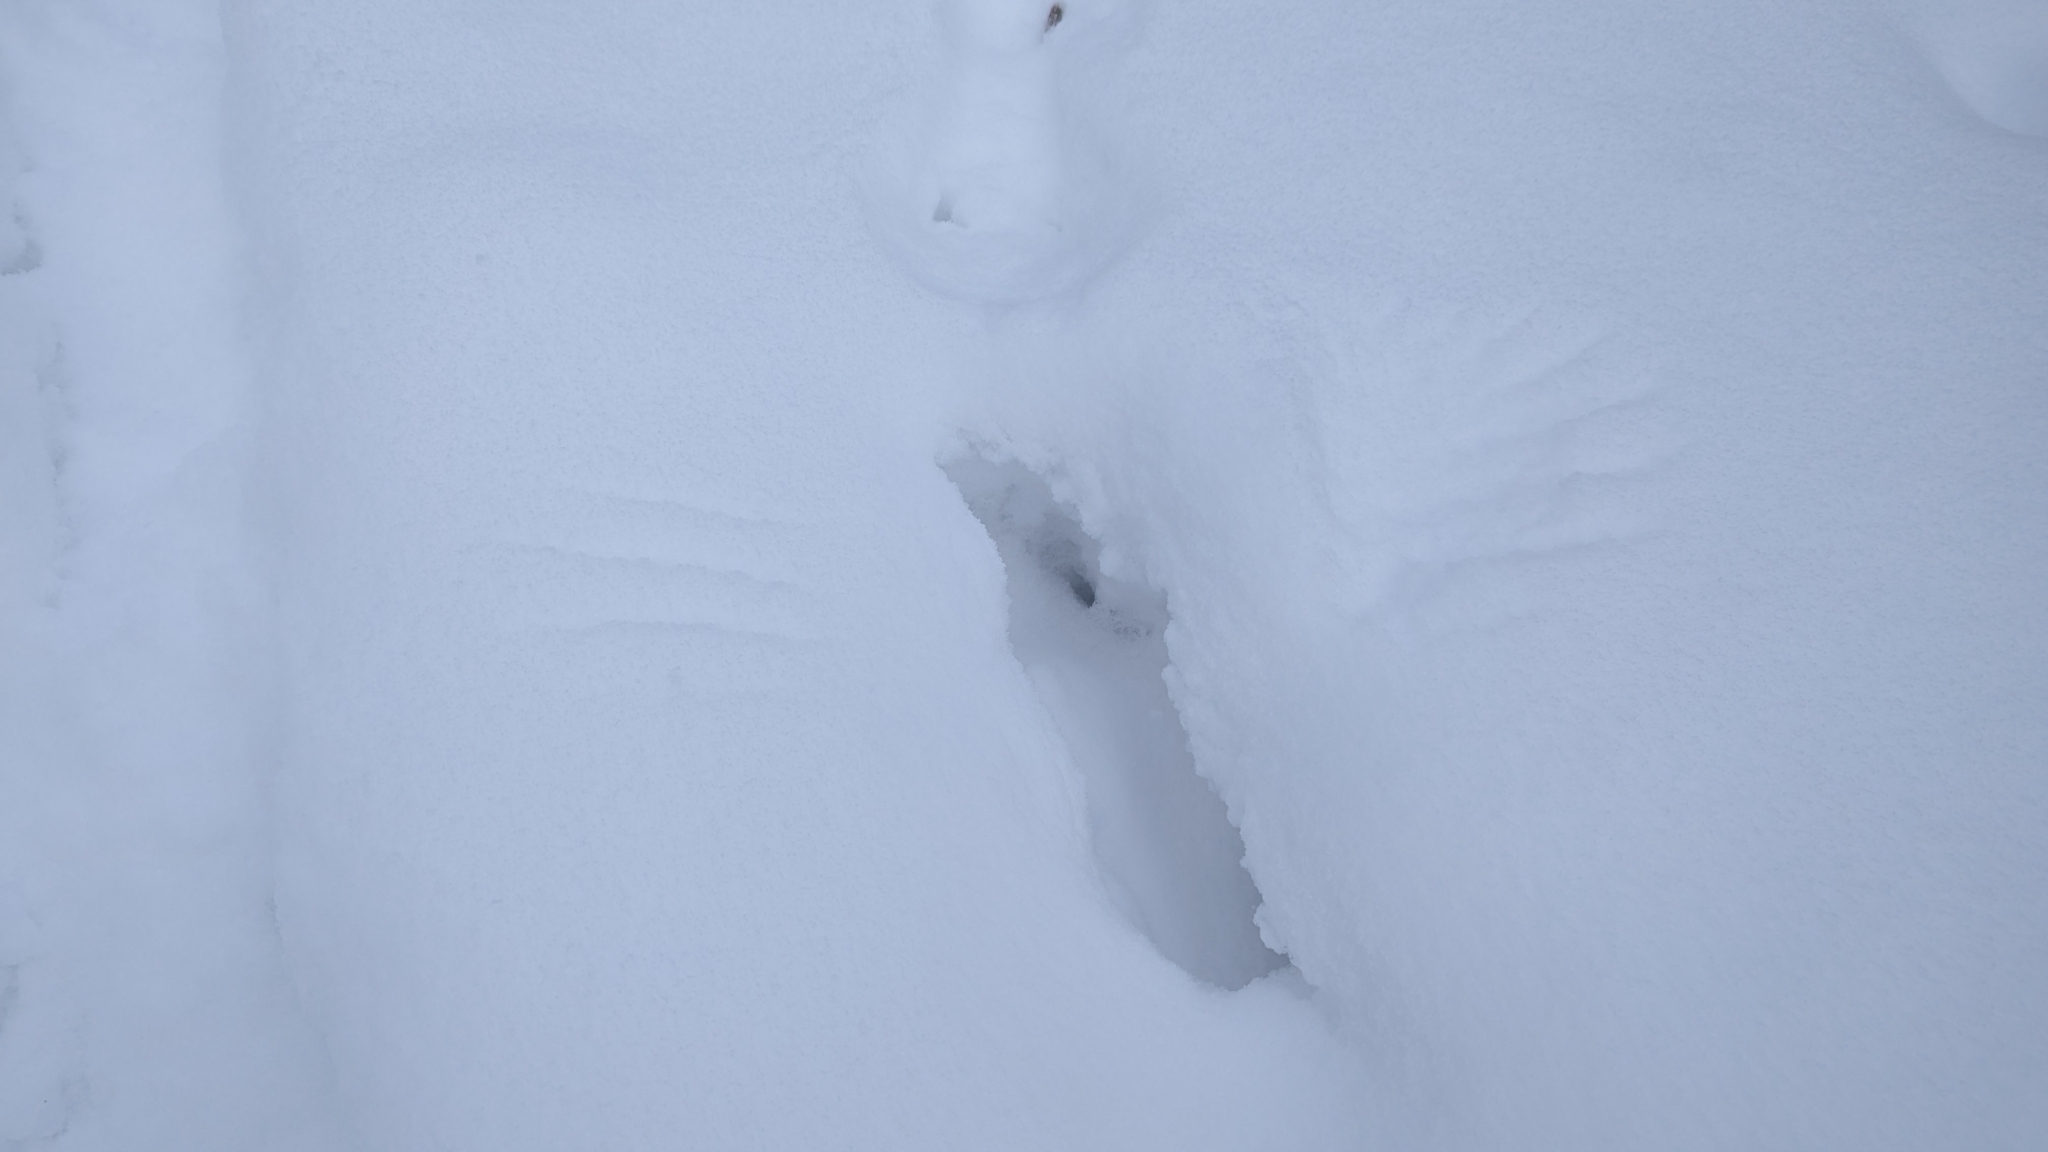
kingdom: Animalia
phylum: Chordata
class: Aves
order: Galliformes
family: Phasianidae
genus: Bonasa
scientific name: Bonasa umbellus
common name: Ruffed grouse
